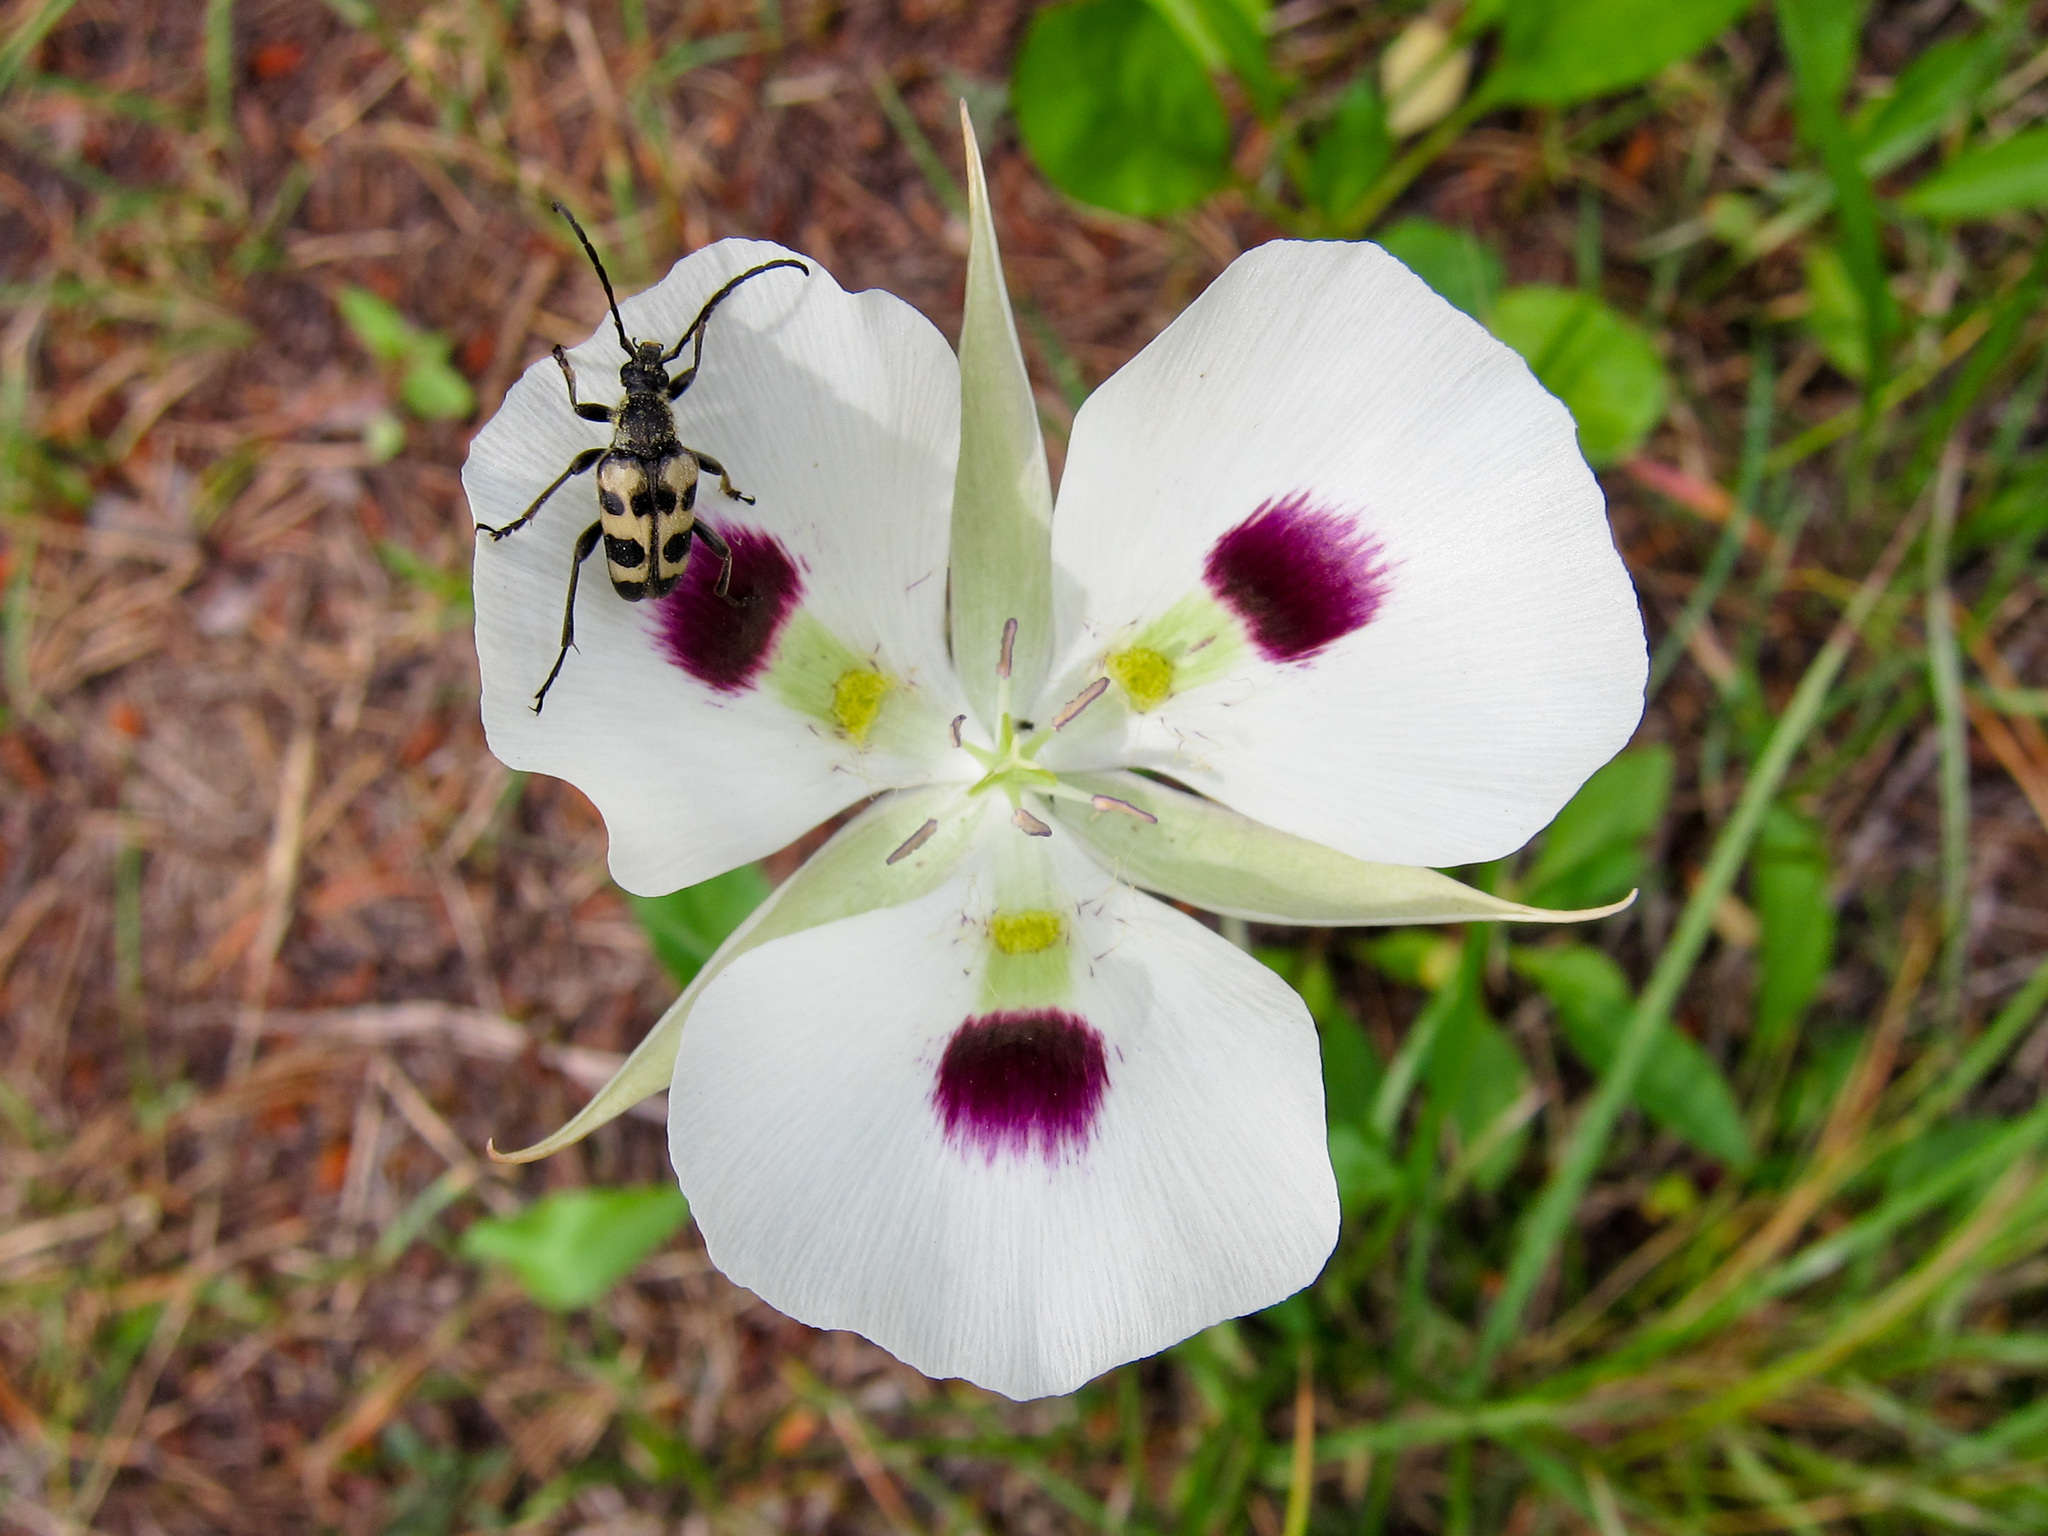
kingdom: Animalia
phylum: Arthropoda
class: Insecta
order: Coleoptera
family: Cerambycidae
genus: Judolia
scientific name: Judolia montivagans
